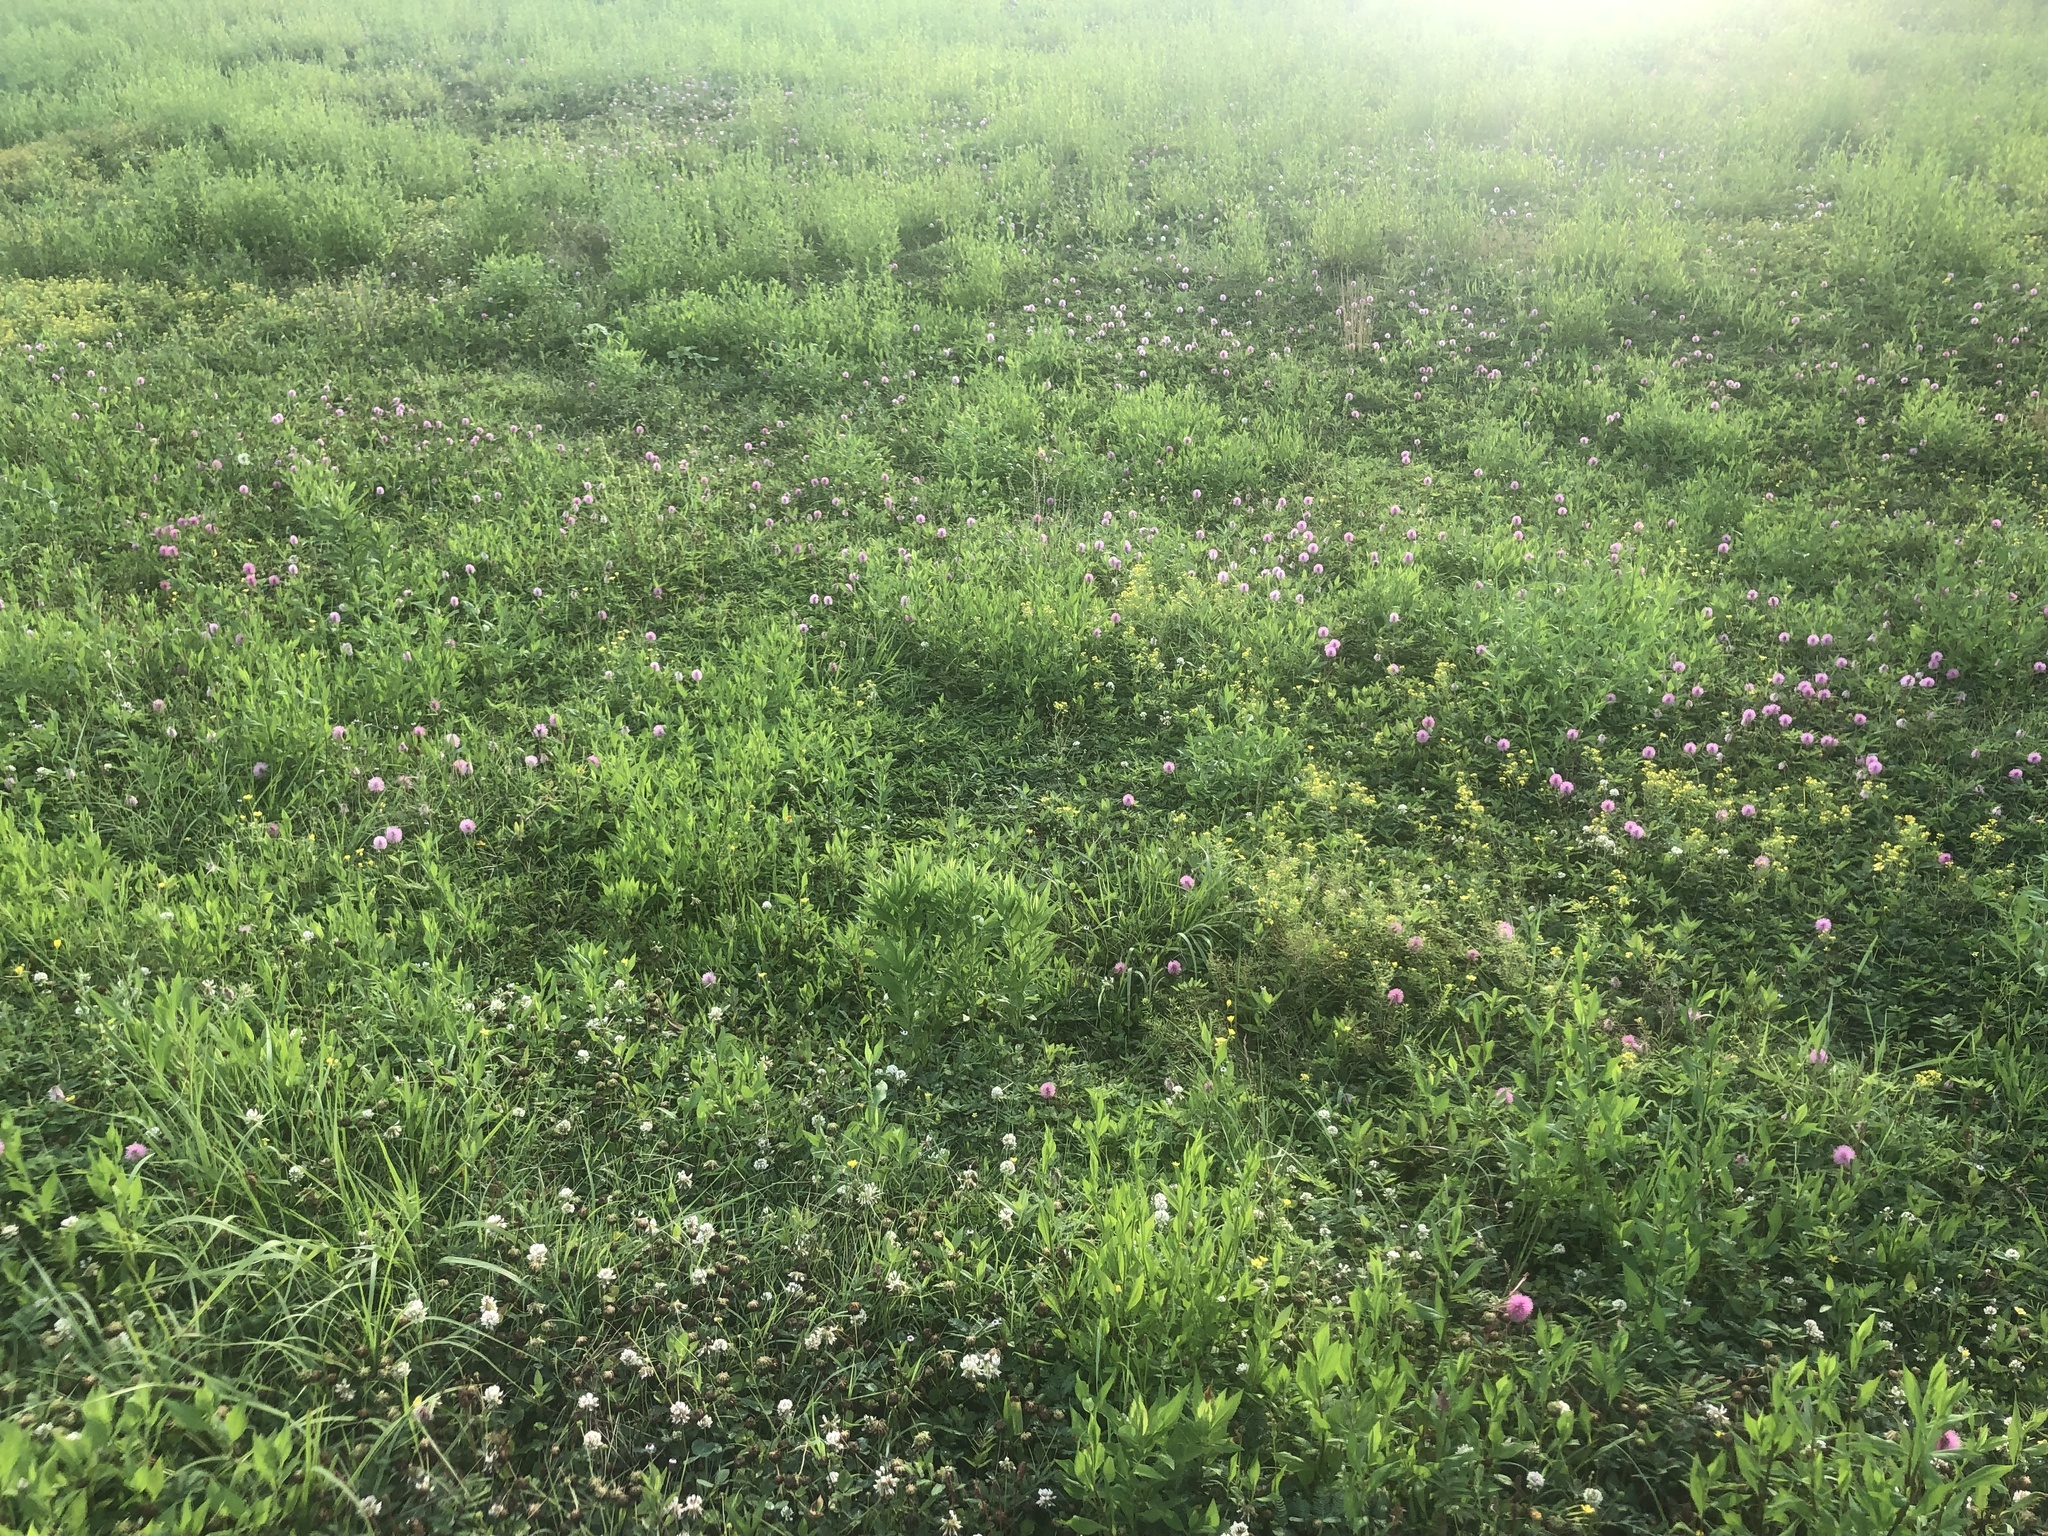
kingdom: Plantae
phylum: Tracheophyta
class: Magnoliopsida
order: Fabales
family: Fabaceae
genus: Mimosa
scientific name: Mimosa strigillosa
